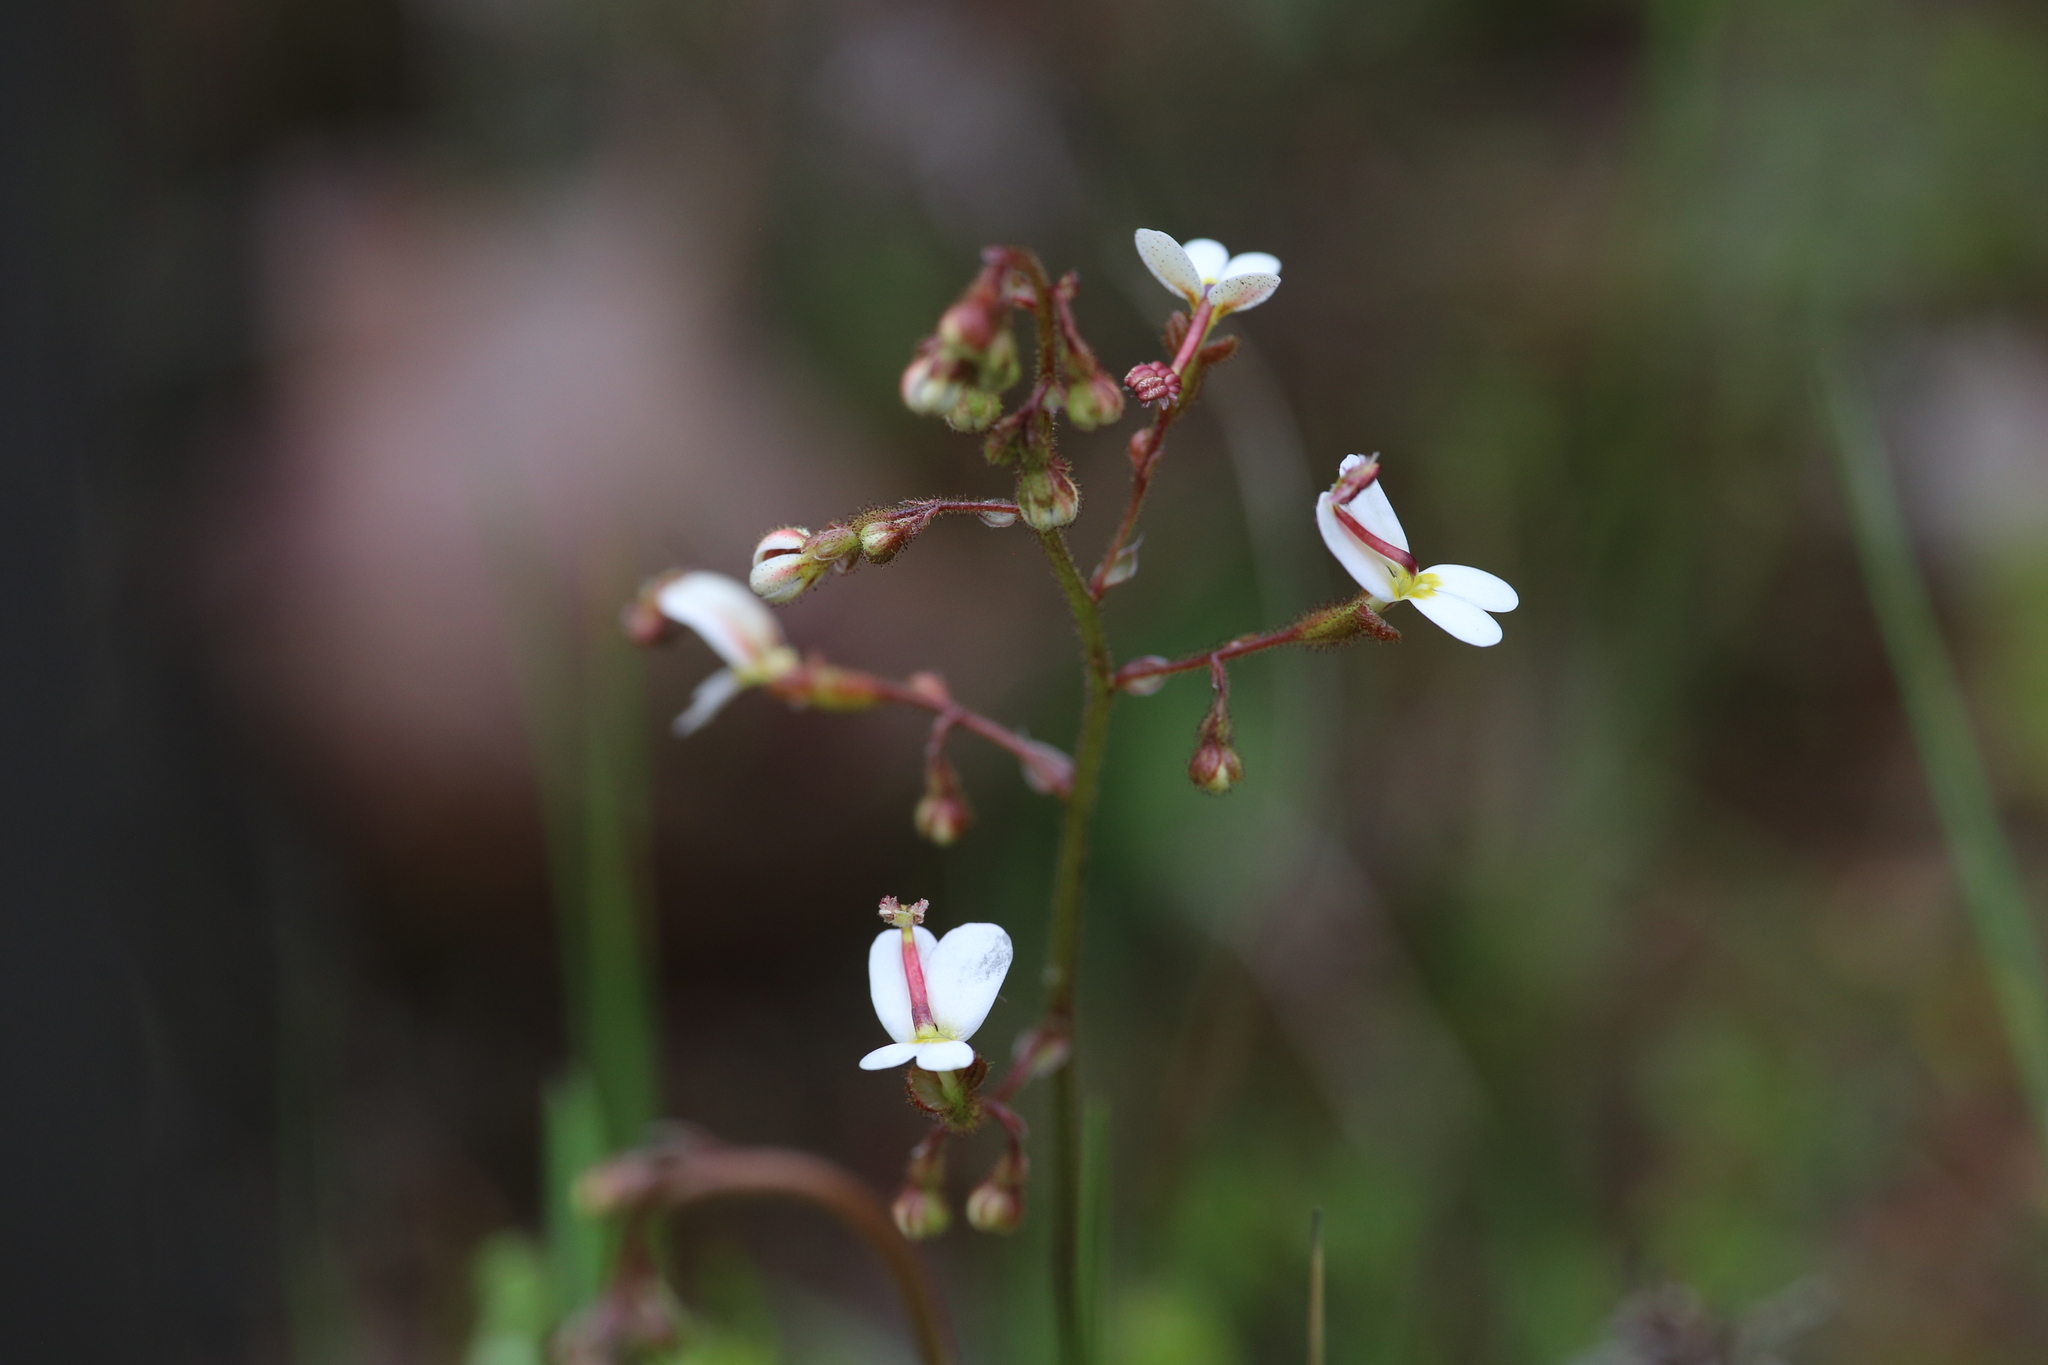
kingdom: Plantae
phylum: Tracheophyta
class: Magnoliopsida
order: Asterales
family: Stylidiaceae
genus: Stylidium
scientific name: Stylidium piliferum
